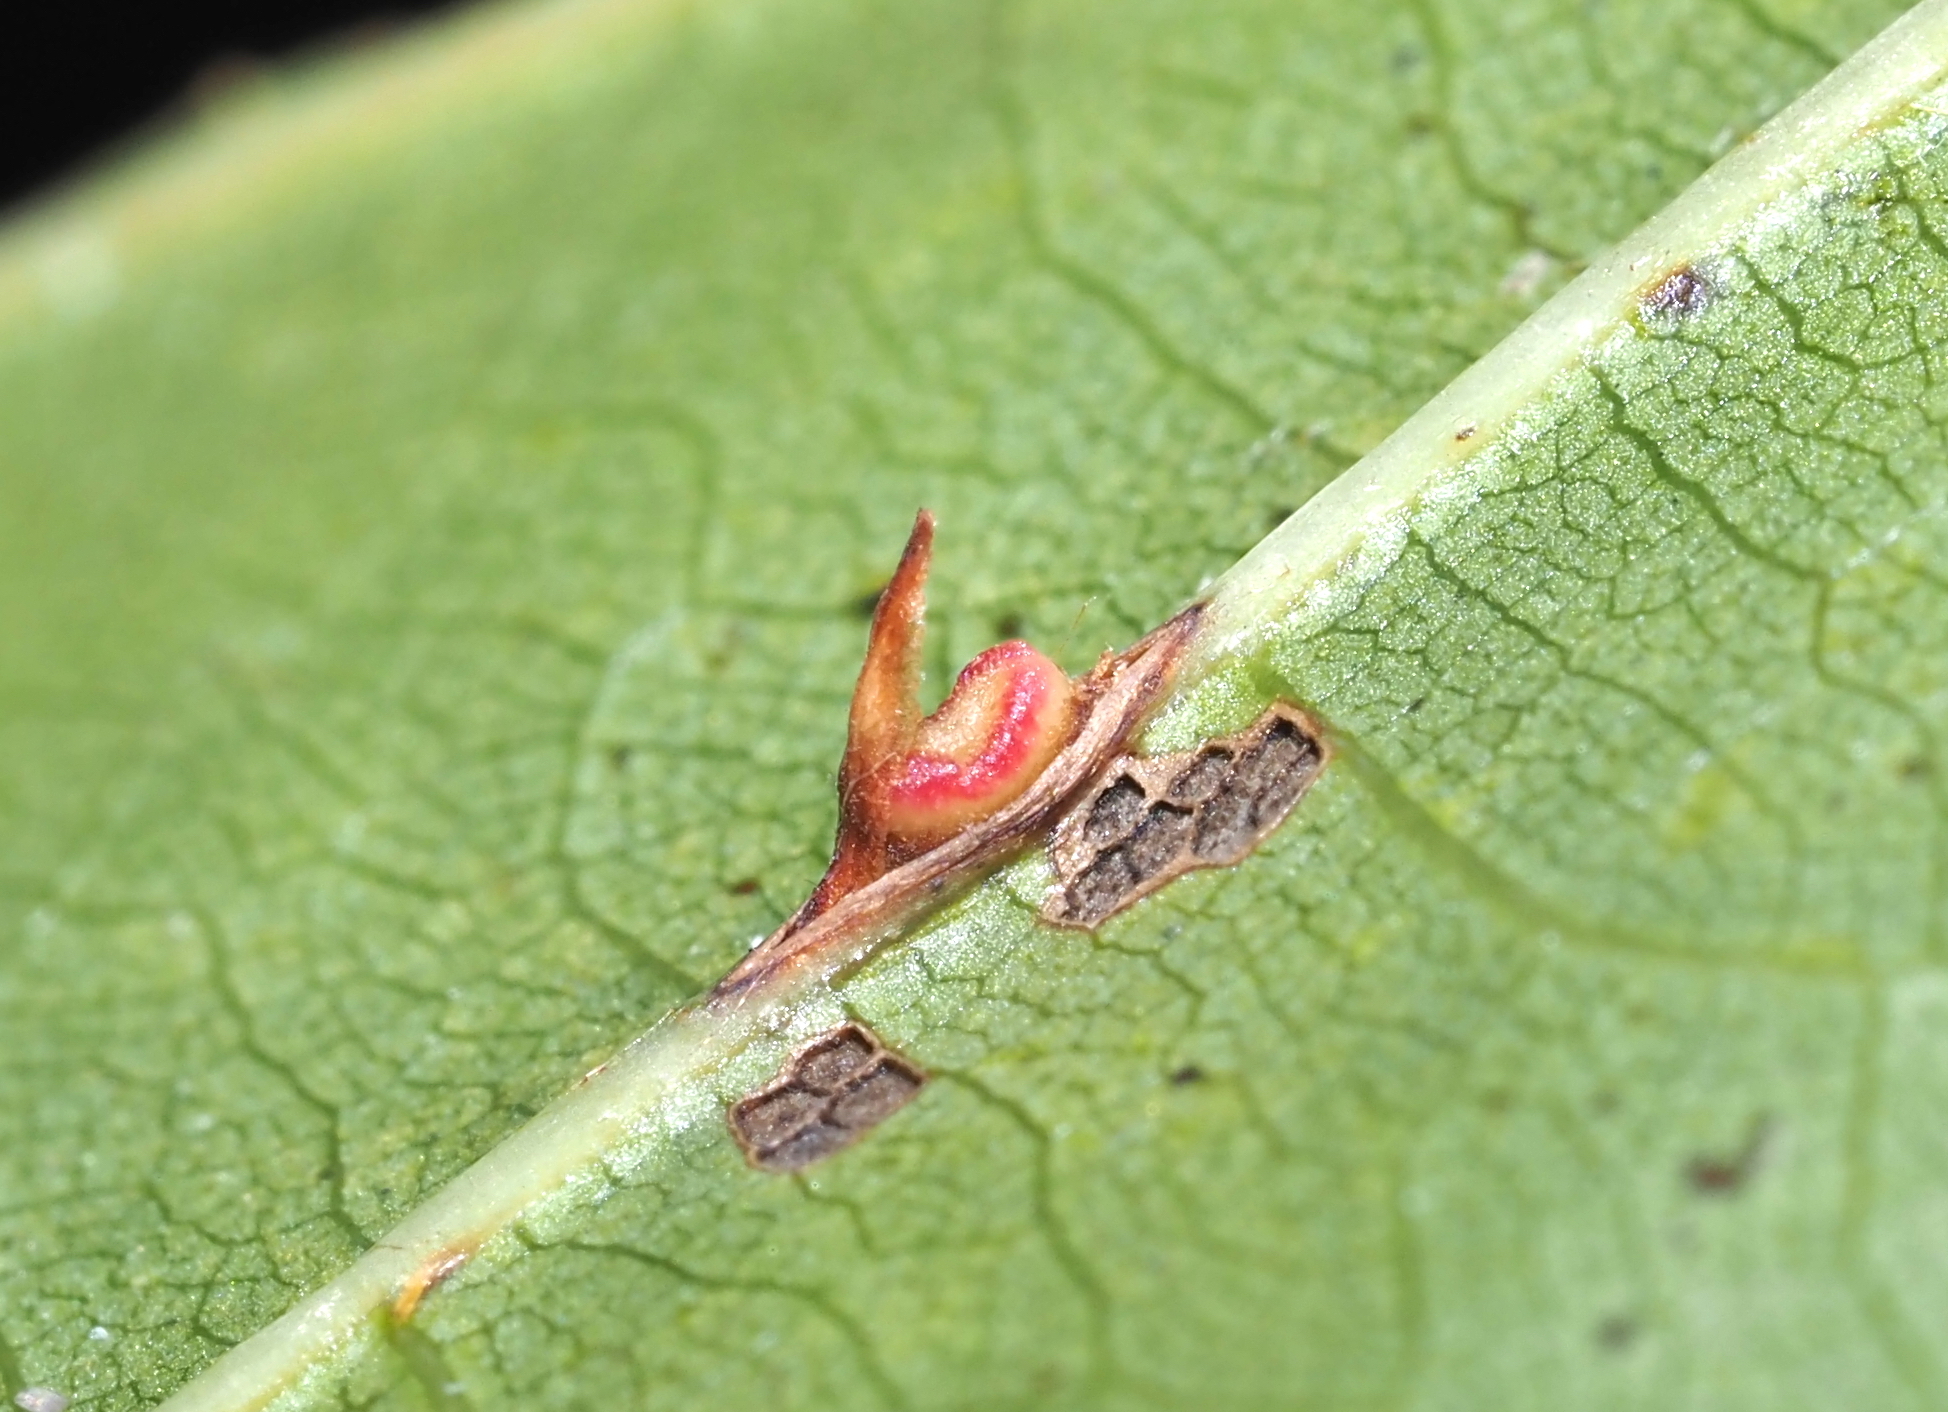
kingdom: Animalia
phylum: Arthropoda
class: Insecta
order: Hymenoptera
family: Cynipidae
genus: Kokkocynips
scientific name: Kokkocynips rileyi
